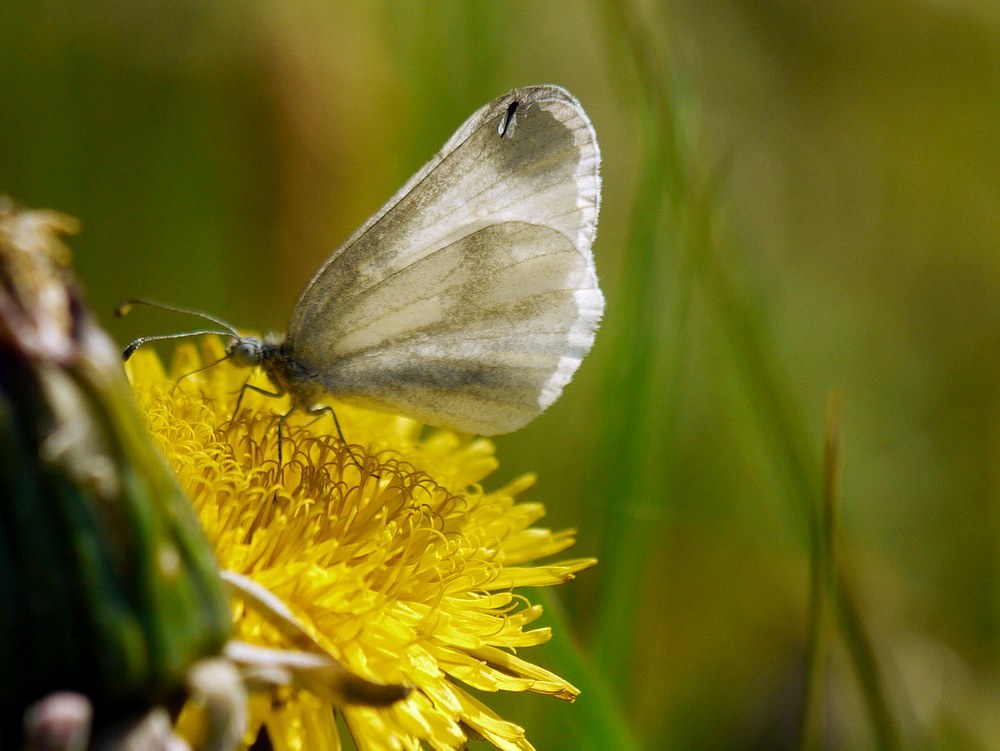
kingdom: Animalia
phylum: Arthropoda
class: Insecta
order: Lepidoptera
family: Pieridae
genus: Leptidea
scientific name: Leptidea
